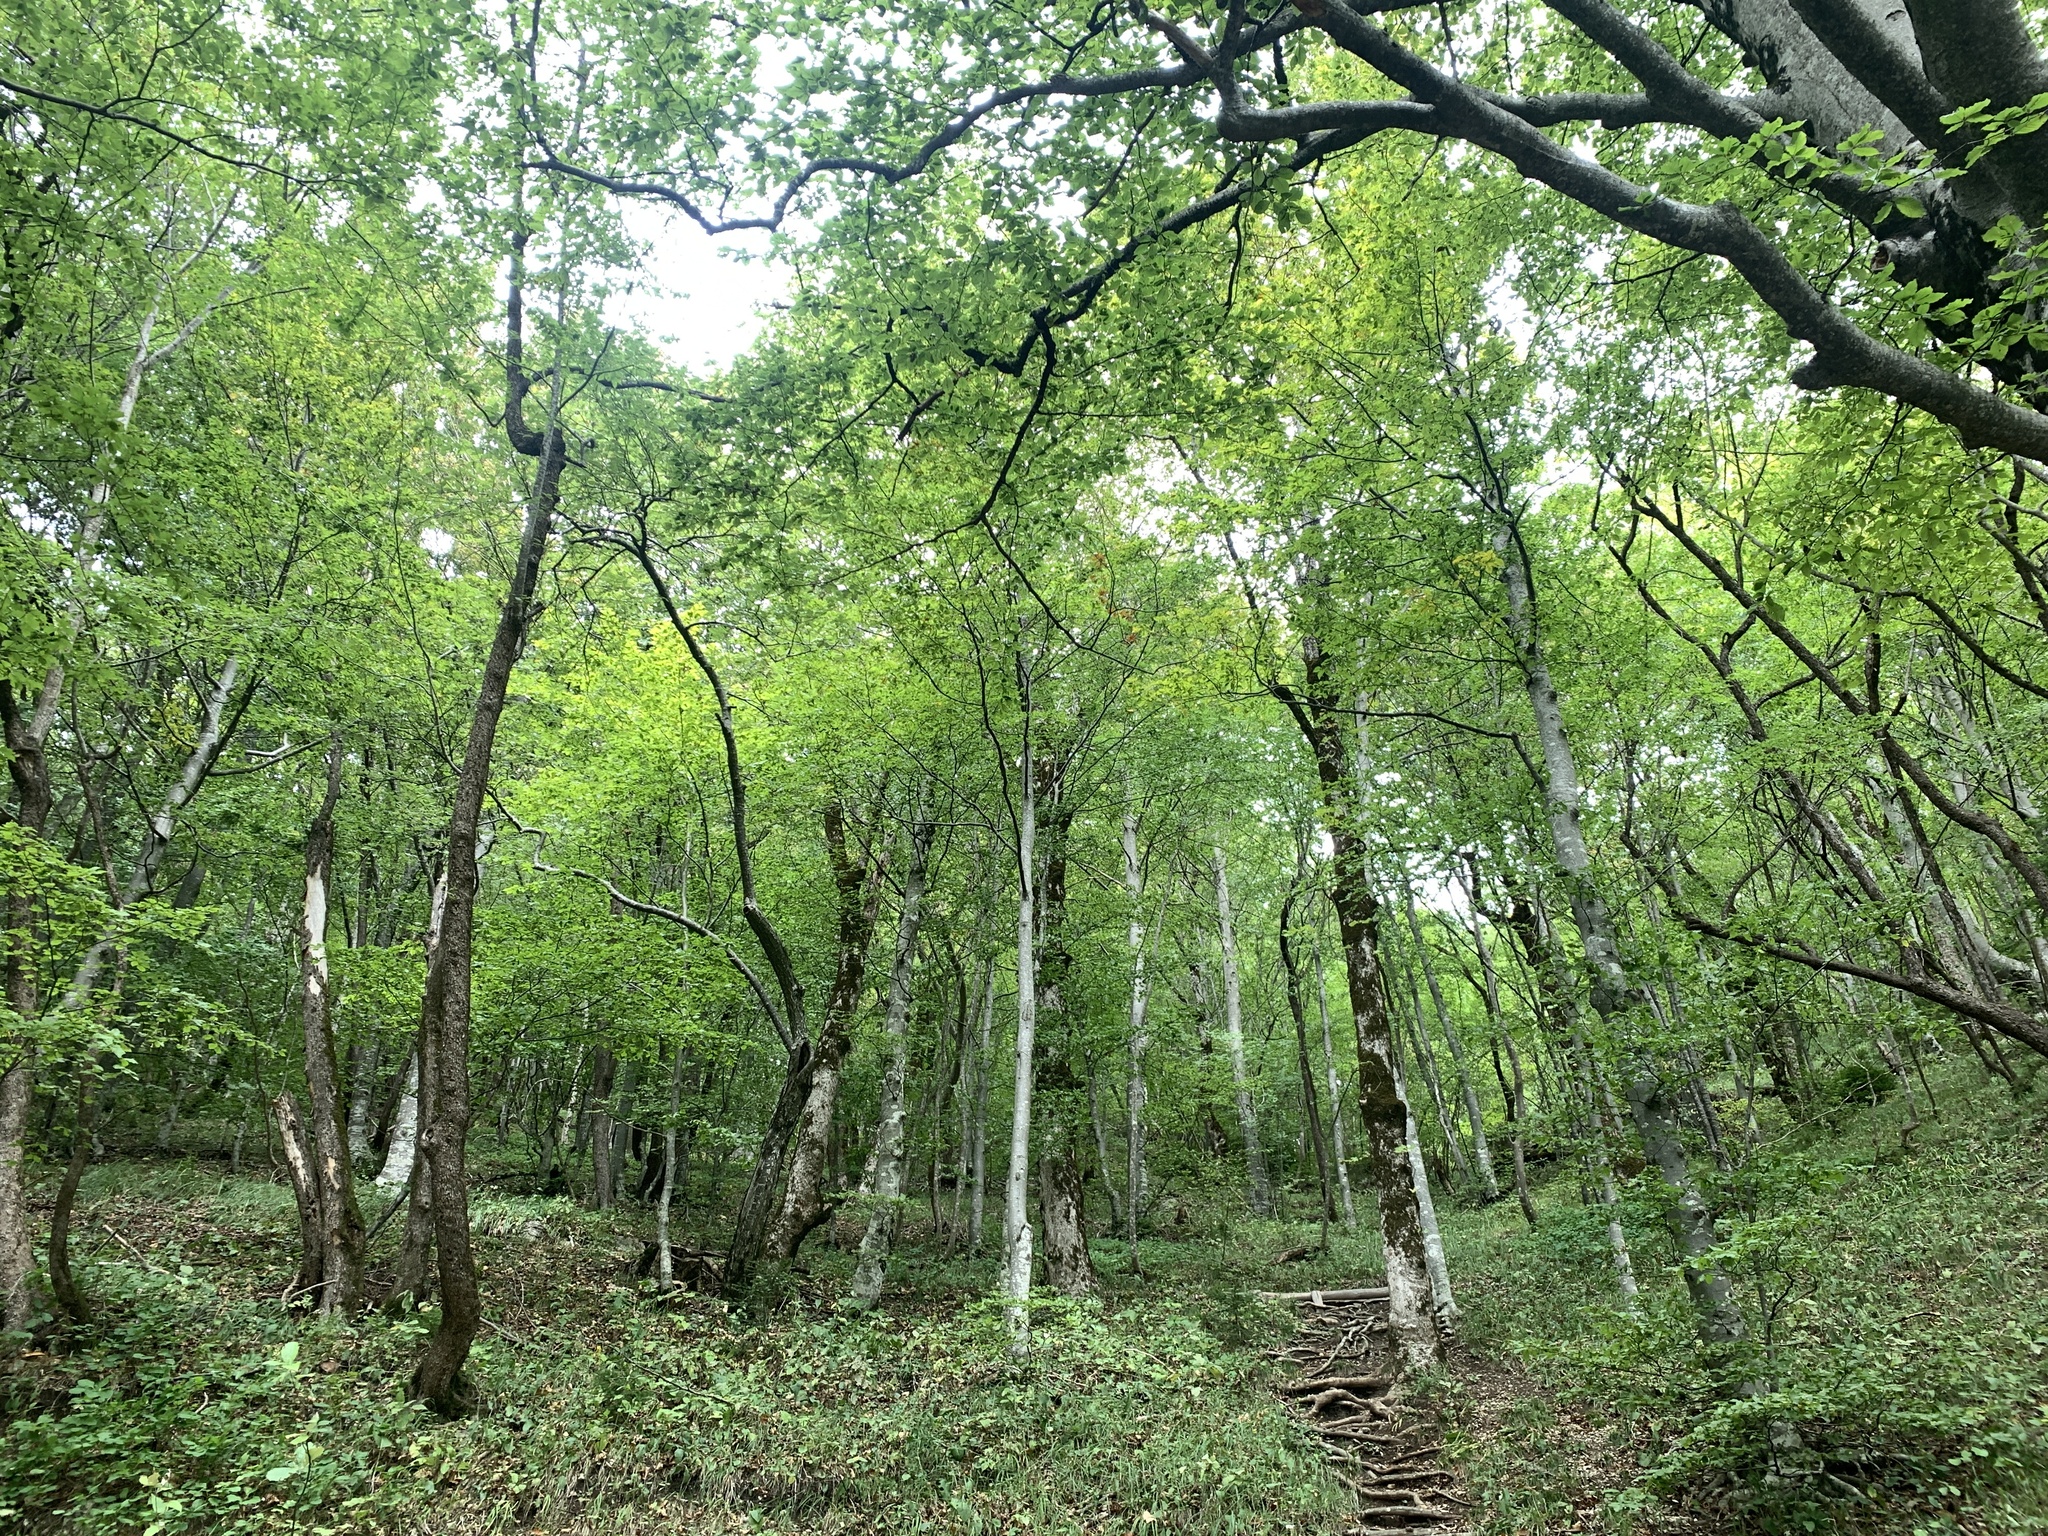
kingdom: Plantae
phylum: Tracheophyta
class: Magnoliopsida
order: Fagales
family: Fagaceae
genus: Fagus
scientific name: Fagus sylvatica
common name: Beech
